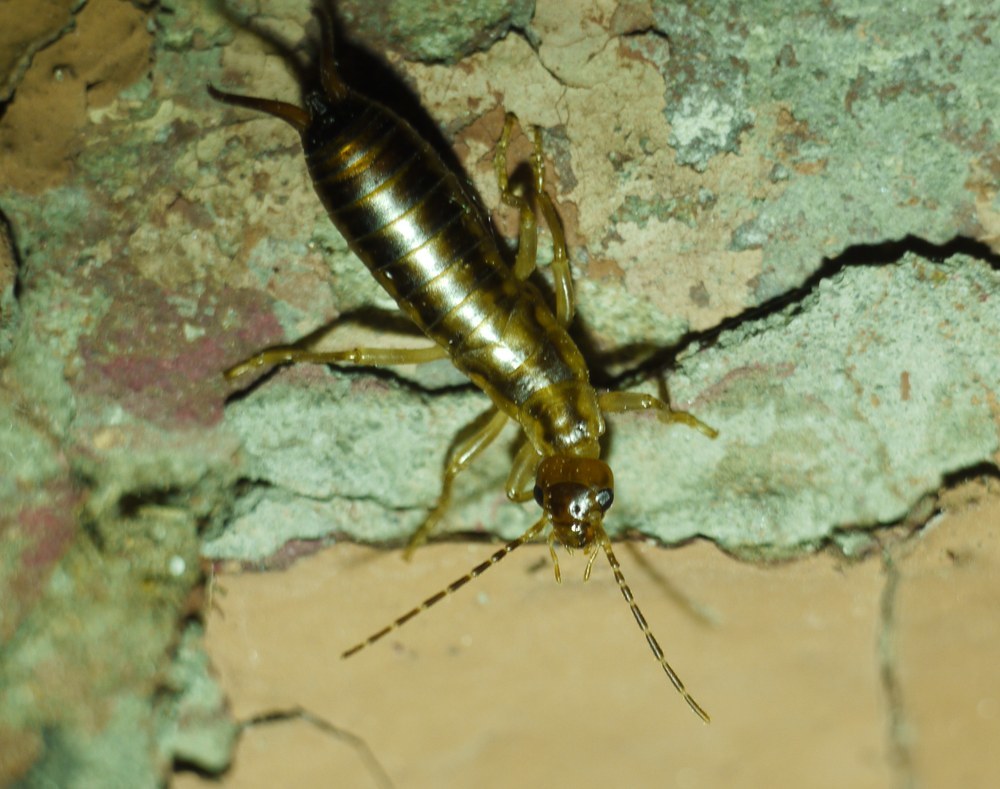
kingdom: Animalia
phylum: Arthropoda
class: Insecta
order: Dermaptera
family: Forficulidae
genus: Forficula
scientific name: Forficula tomis
